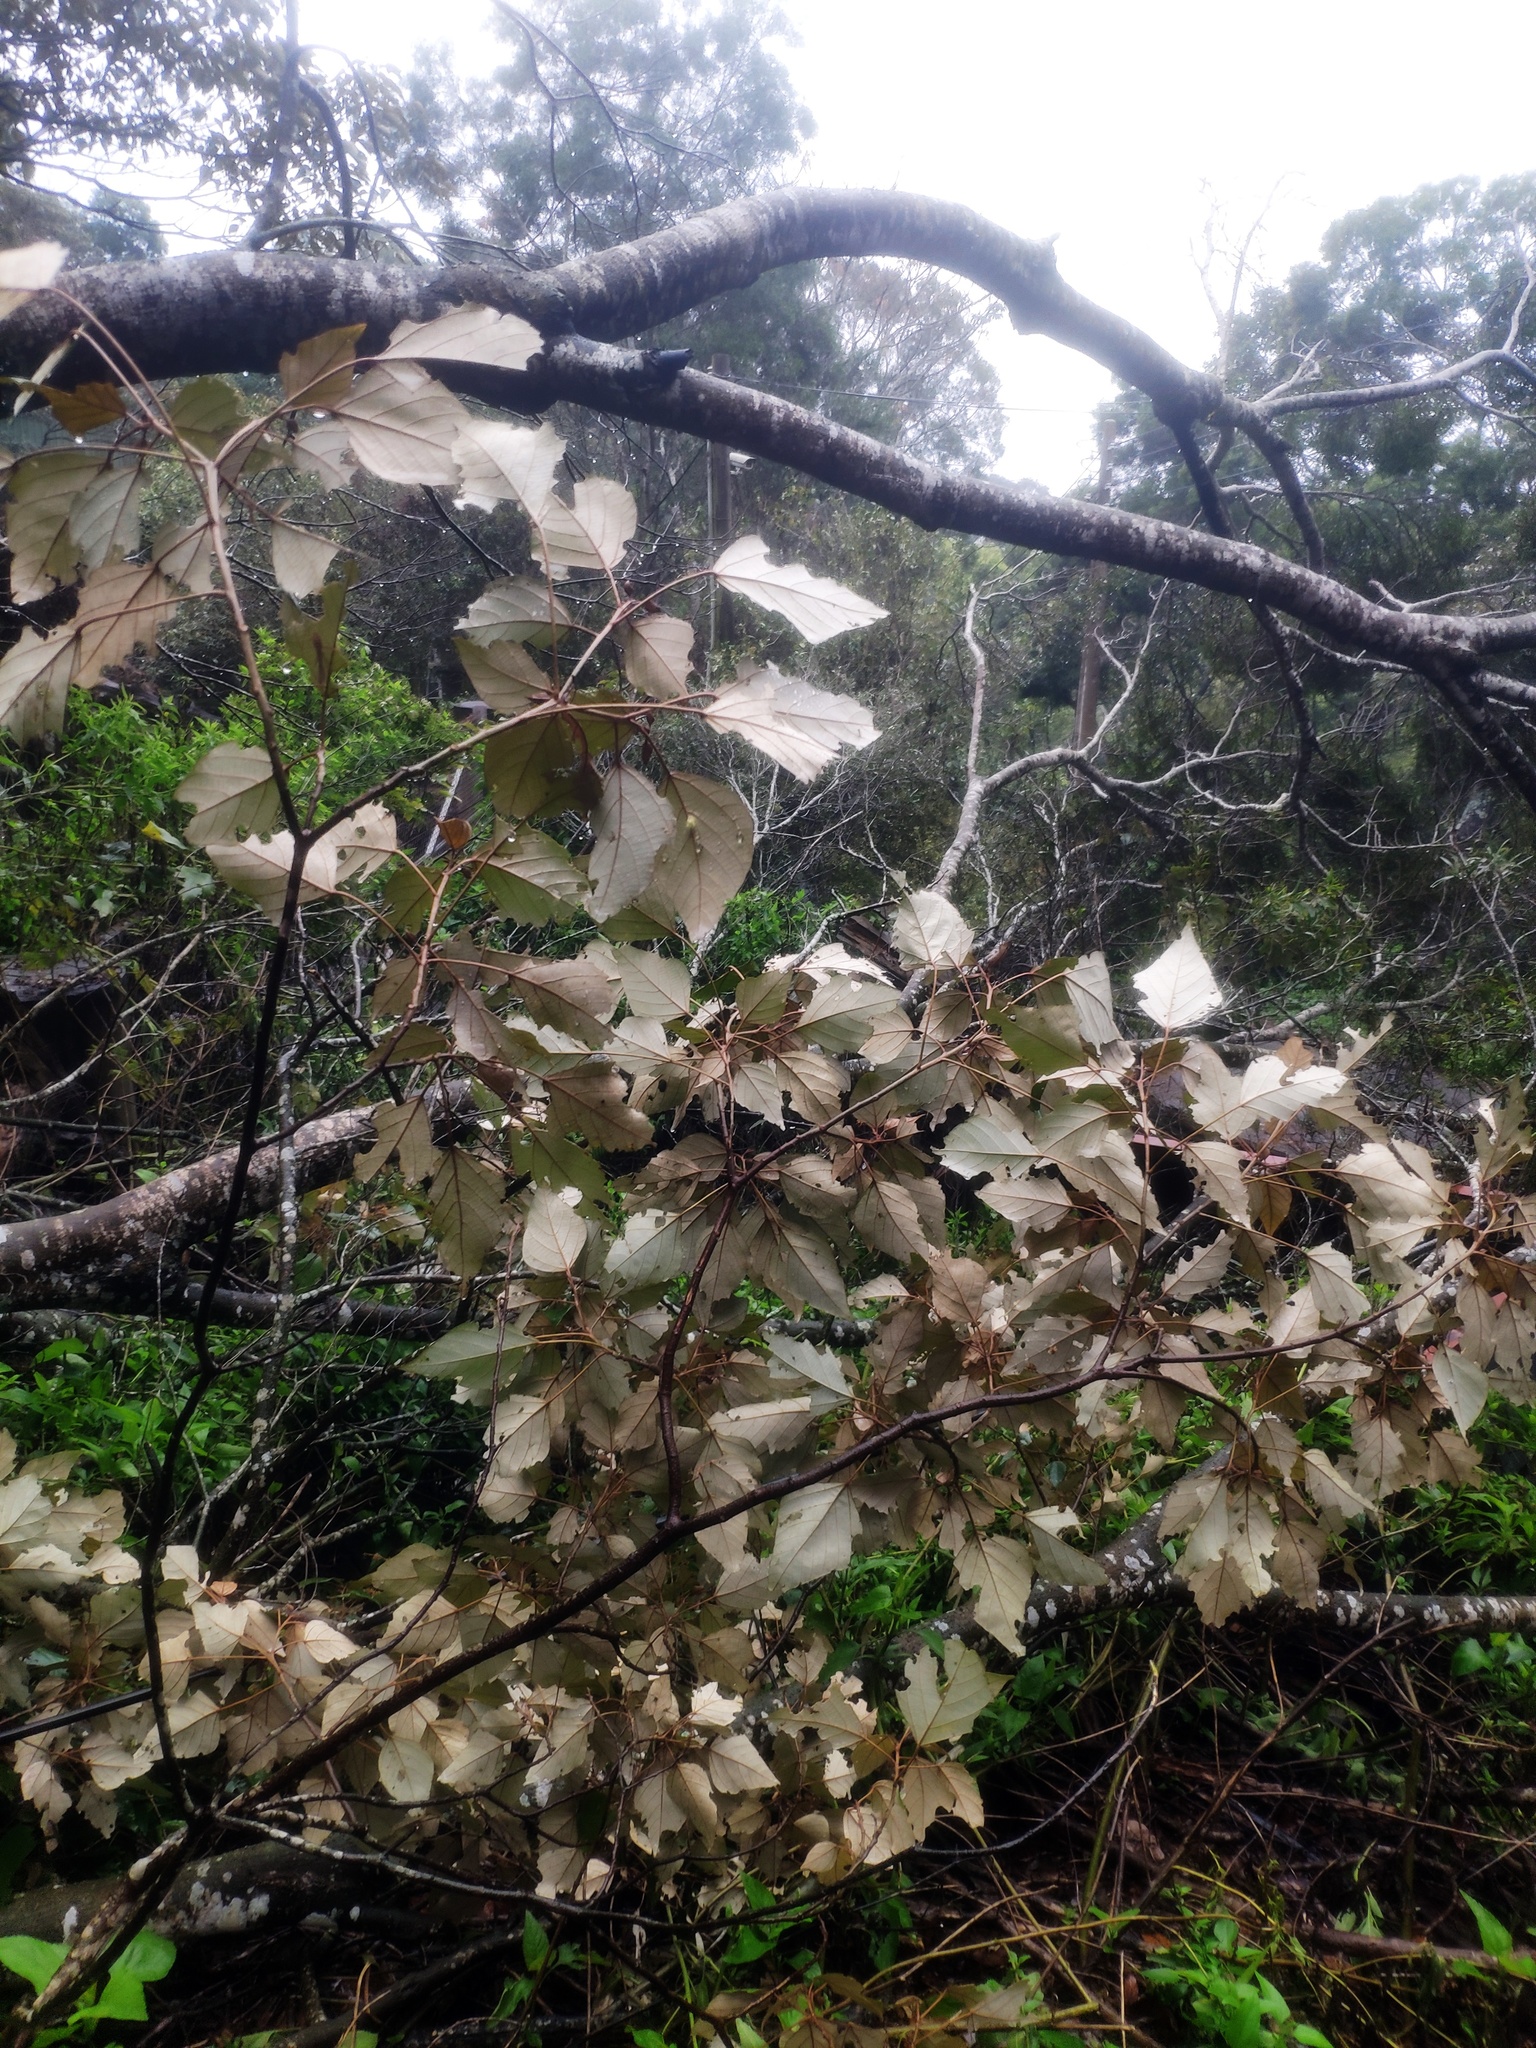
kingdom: Plantae
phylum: Tracheophyta
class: Magnoliopsida
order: Malpighiales
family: Euphorbiaceae
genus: Mallotus
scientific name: Mallotus paniculatus
